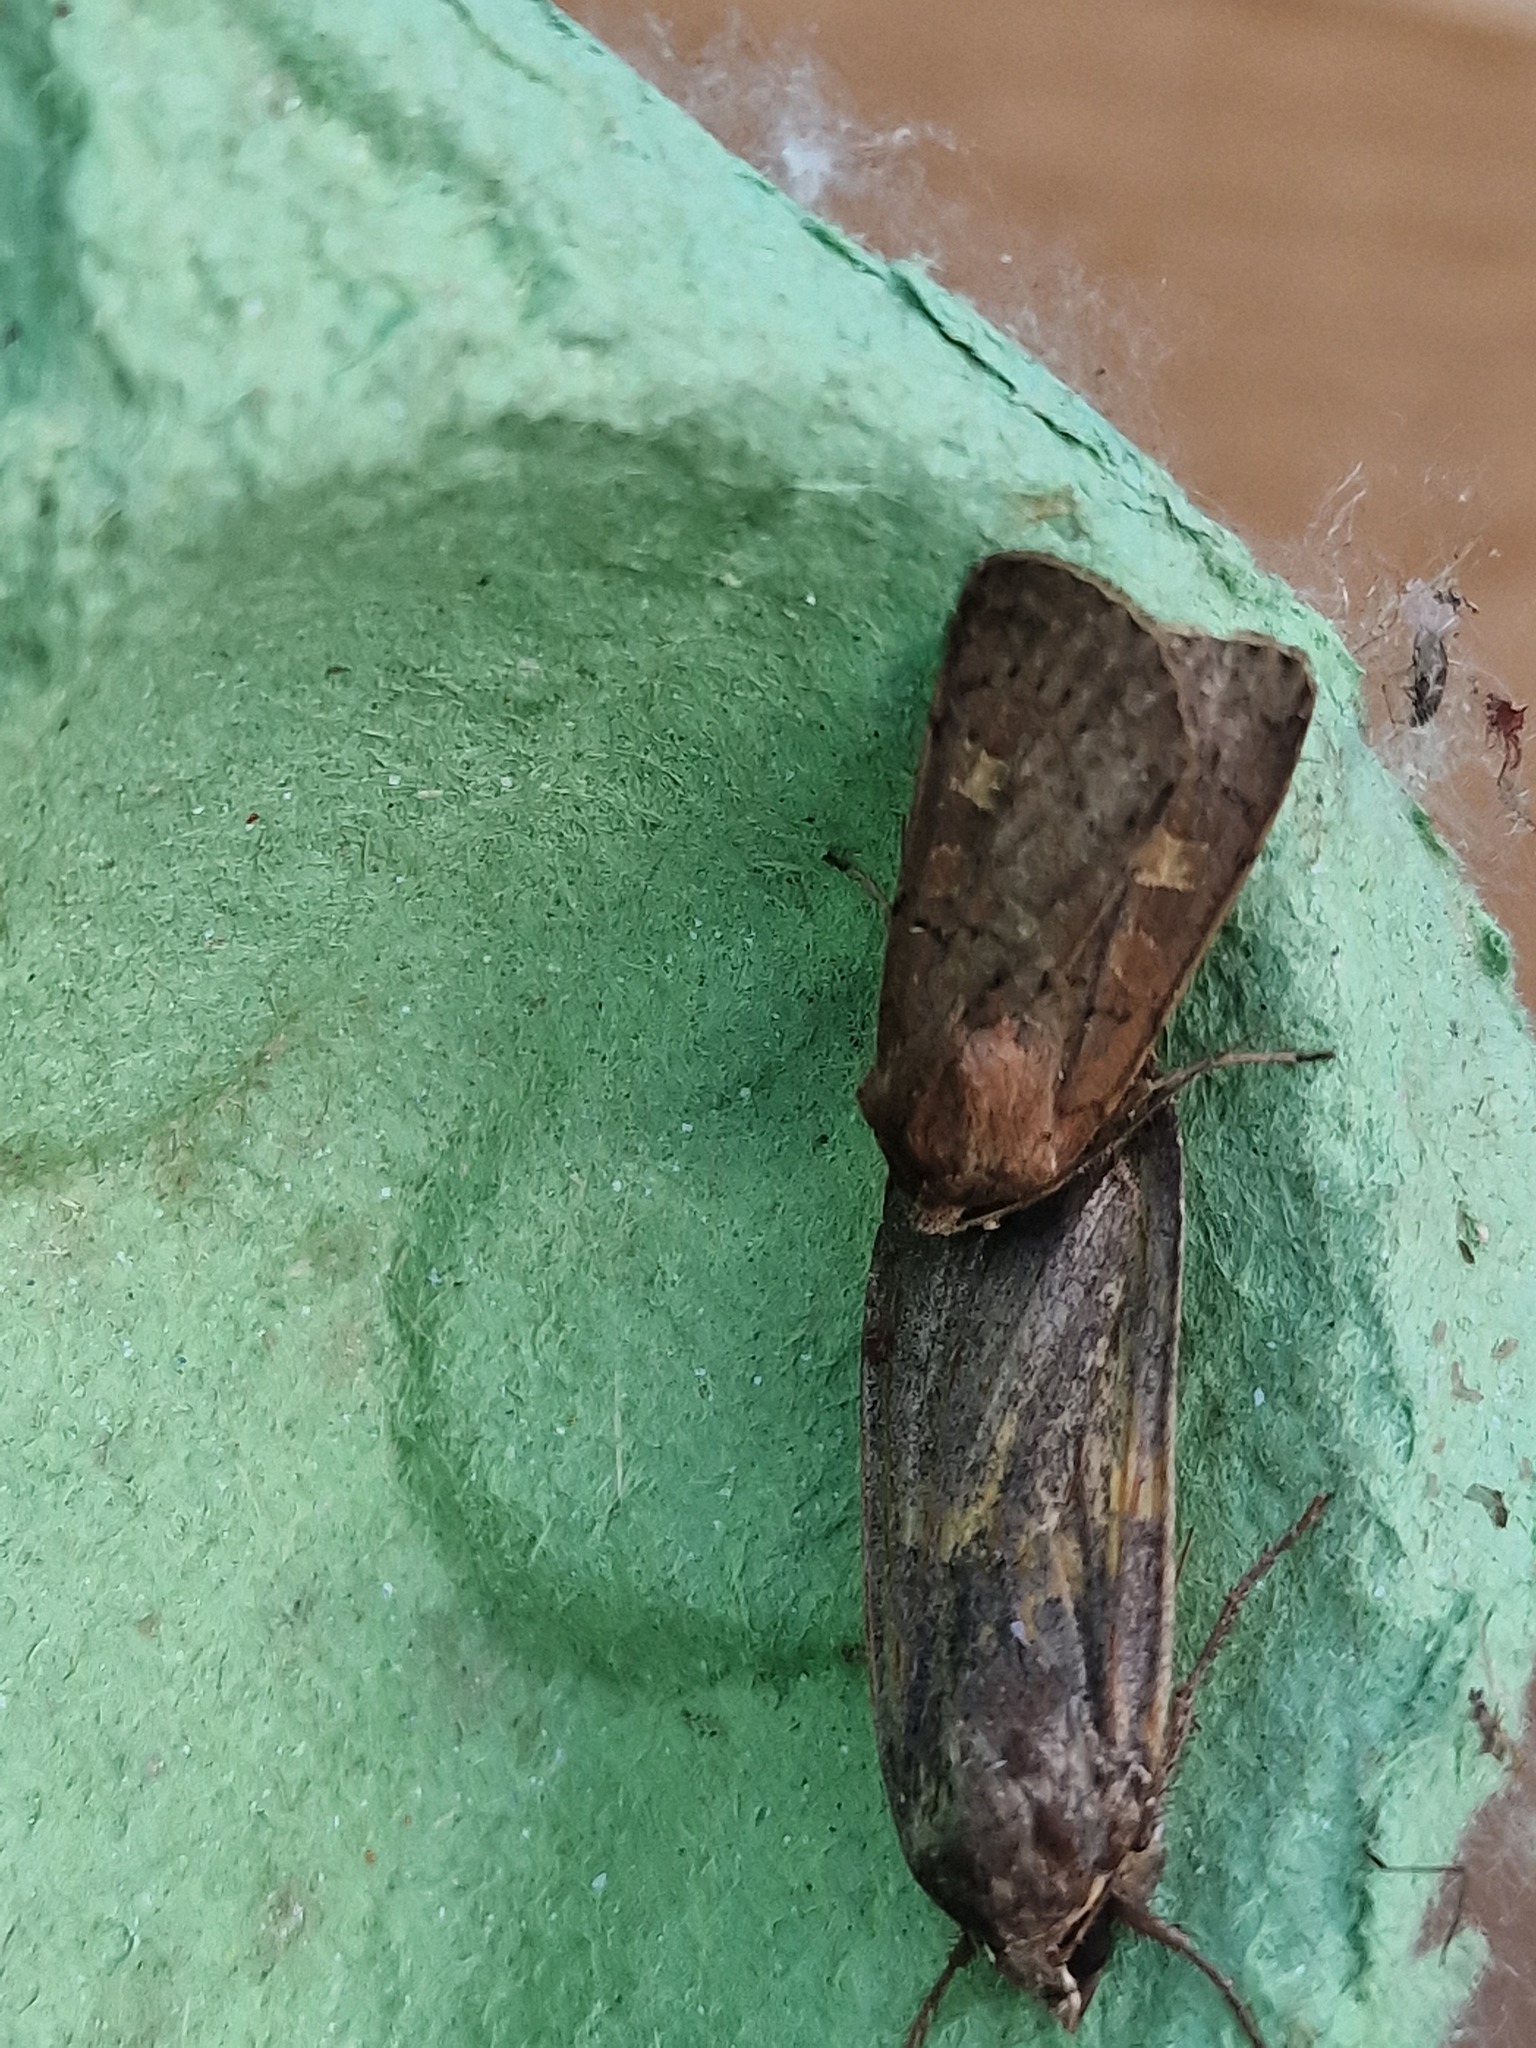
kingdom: Animalia
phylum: Arthropoda
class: Insecta
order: Lepidoptera
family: Noctuidae
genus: Xestia
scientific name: Xestia xanthographa
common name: Square-spot rustic
